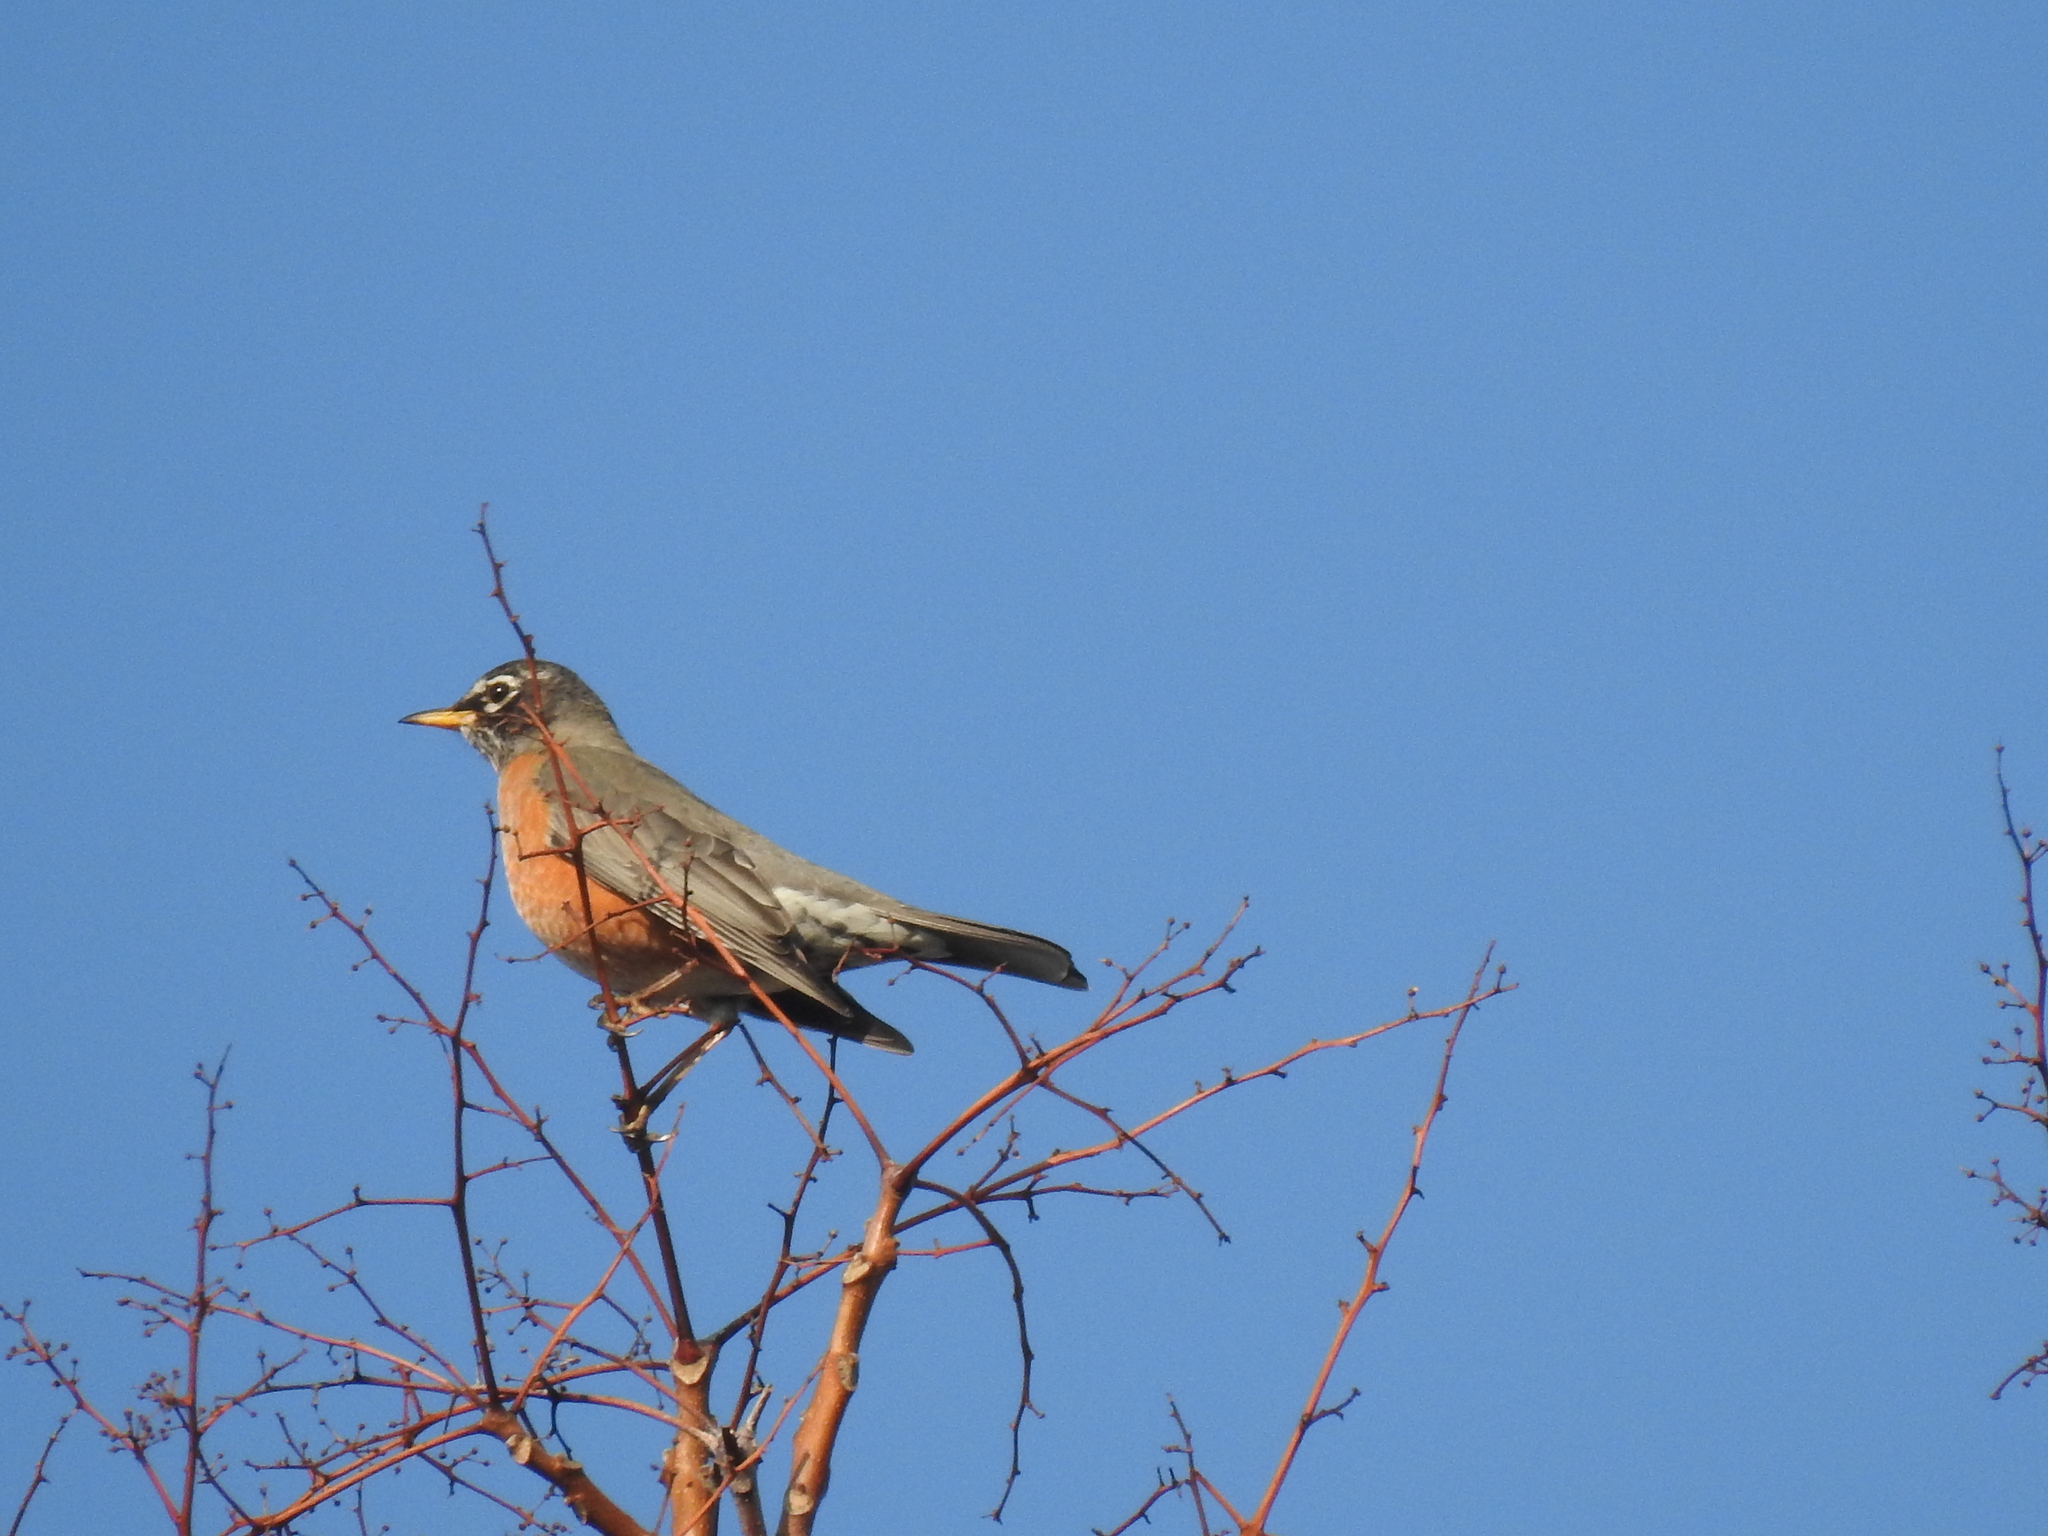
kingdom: Animalia
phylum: Chordata
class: Aves
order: Passeriformes
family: Turdidae
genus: Turdus
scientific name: Turdus migratorius
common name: American robin
